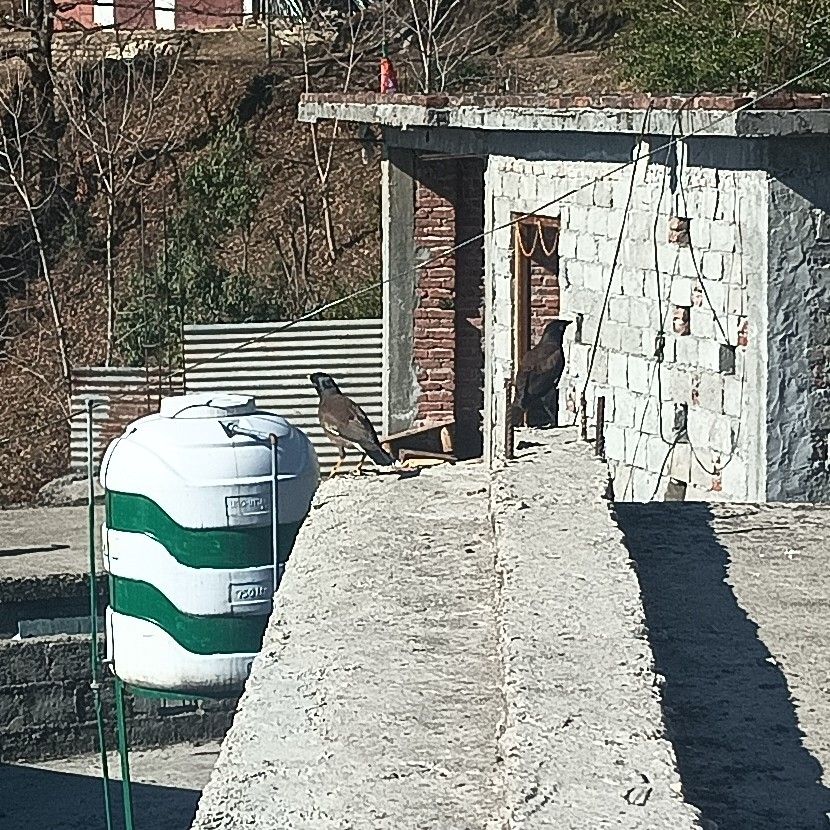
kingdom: Animalia
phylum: Chordata
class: Aves
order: Passeriformes
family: Sturnidae
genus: Acridotheres
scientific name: Acridotheres tristis
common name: Common myna
